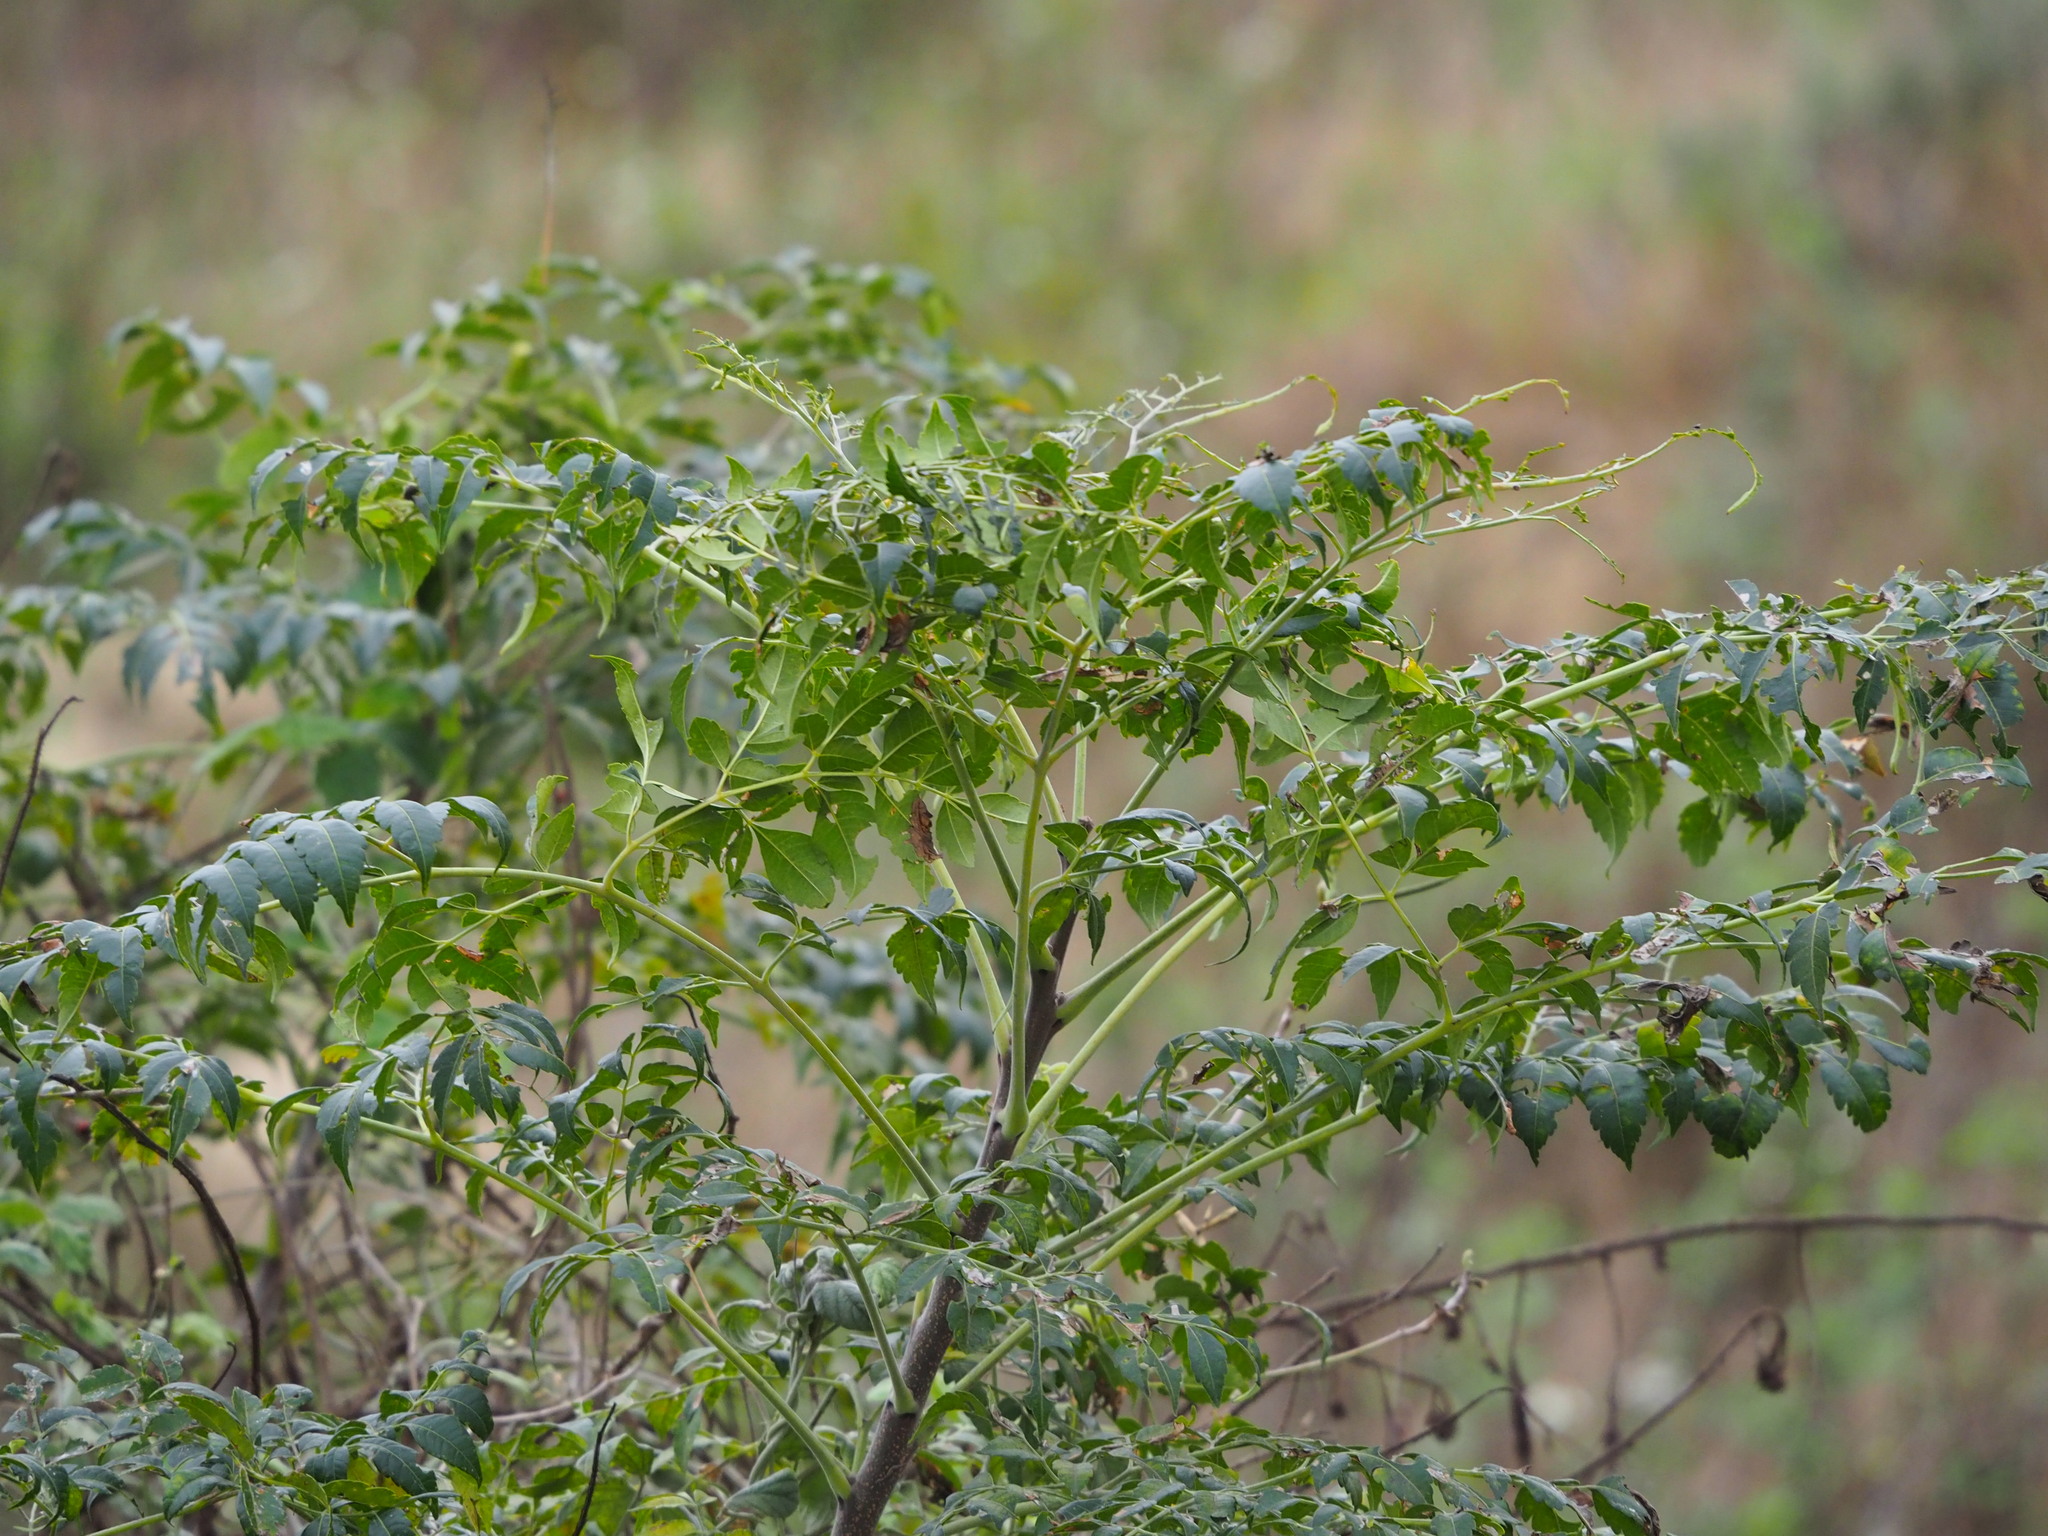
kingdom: Plantae
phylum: Tracheophyta
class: Magnoliopsida
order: Sapindales
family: Meliaceae
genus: Melia
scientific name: Melia azedarach
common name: Chinaberrytree
